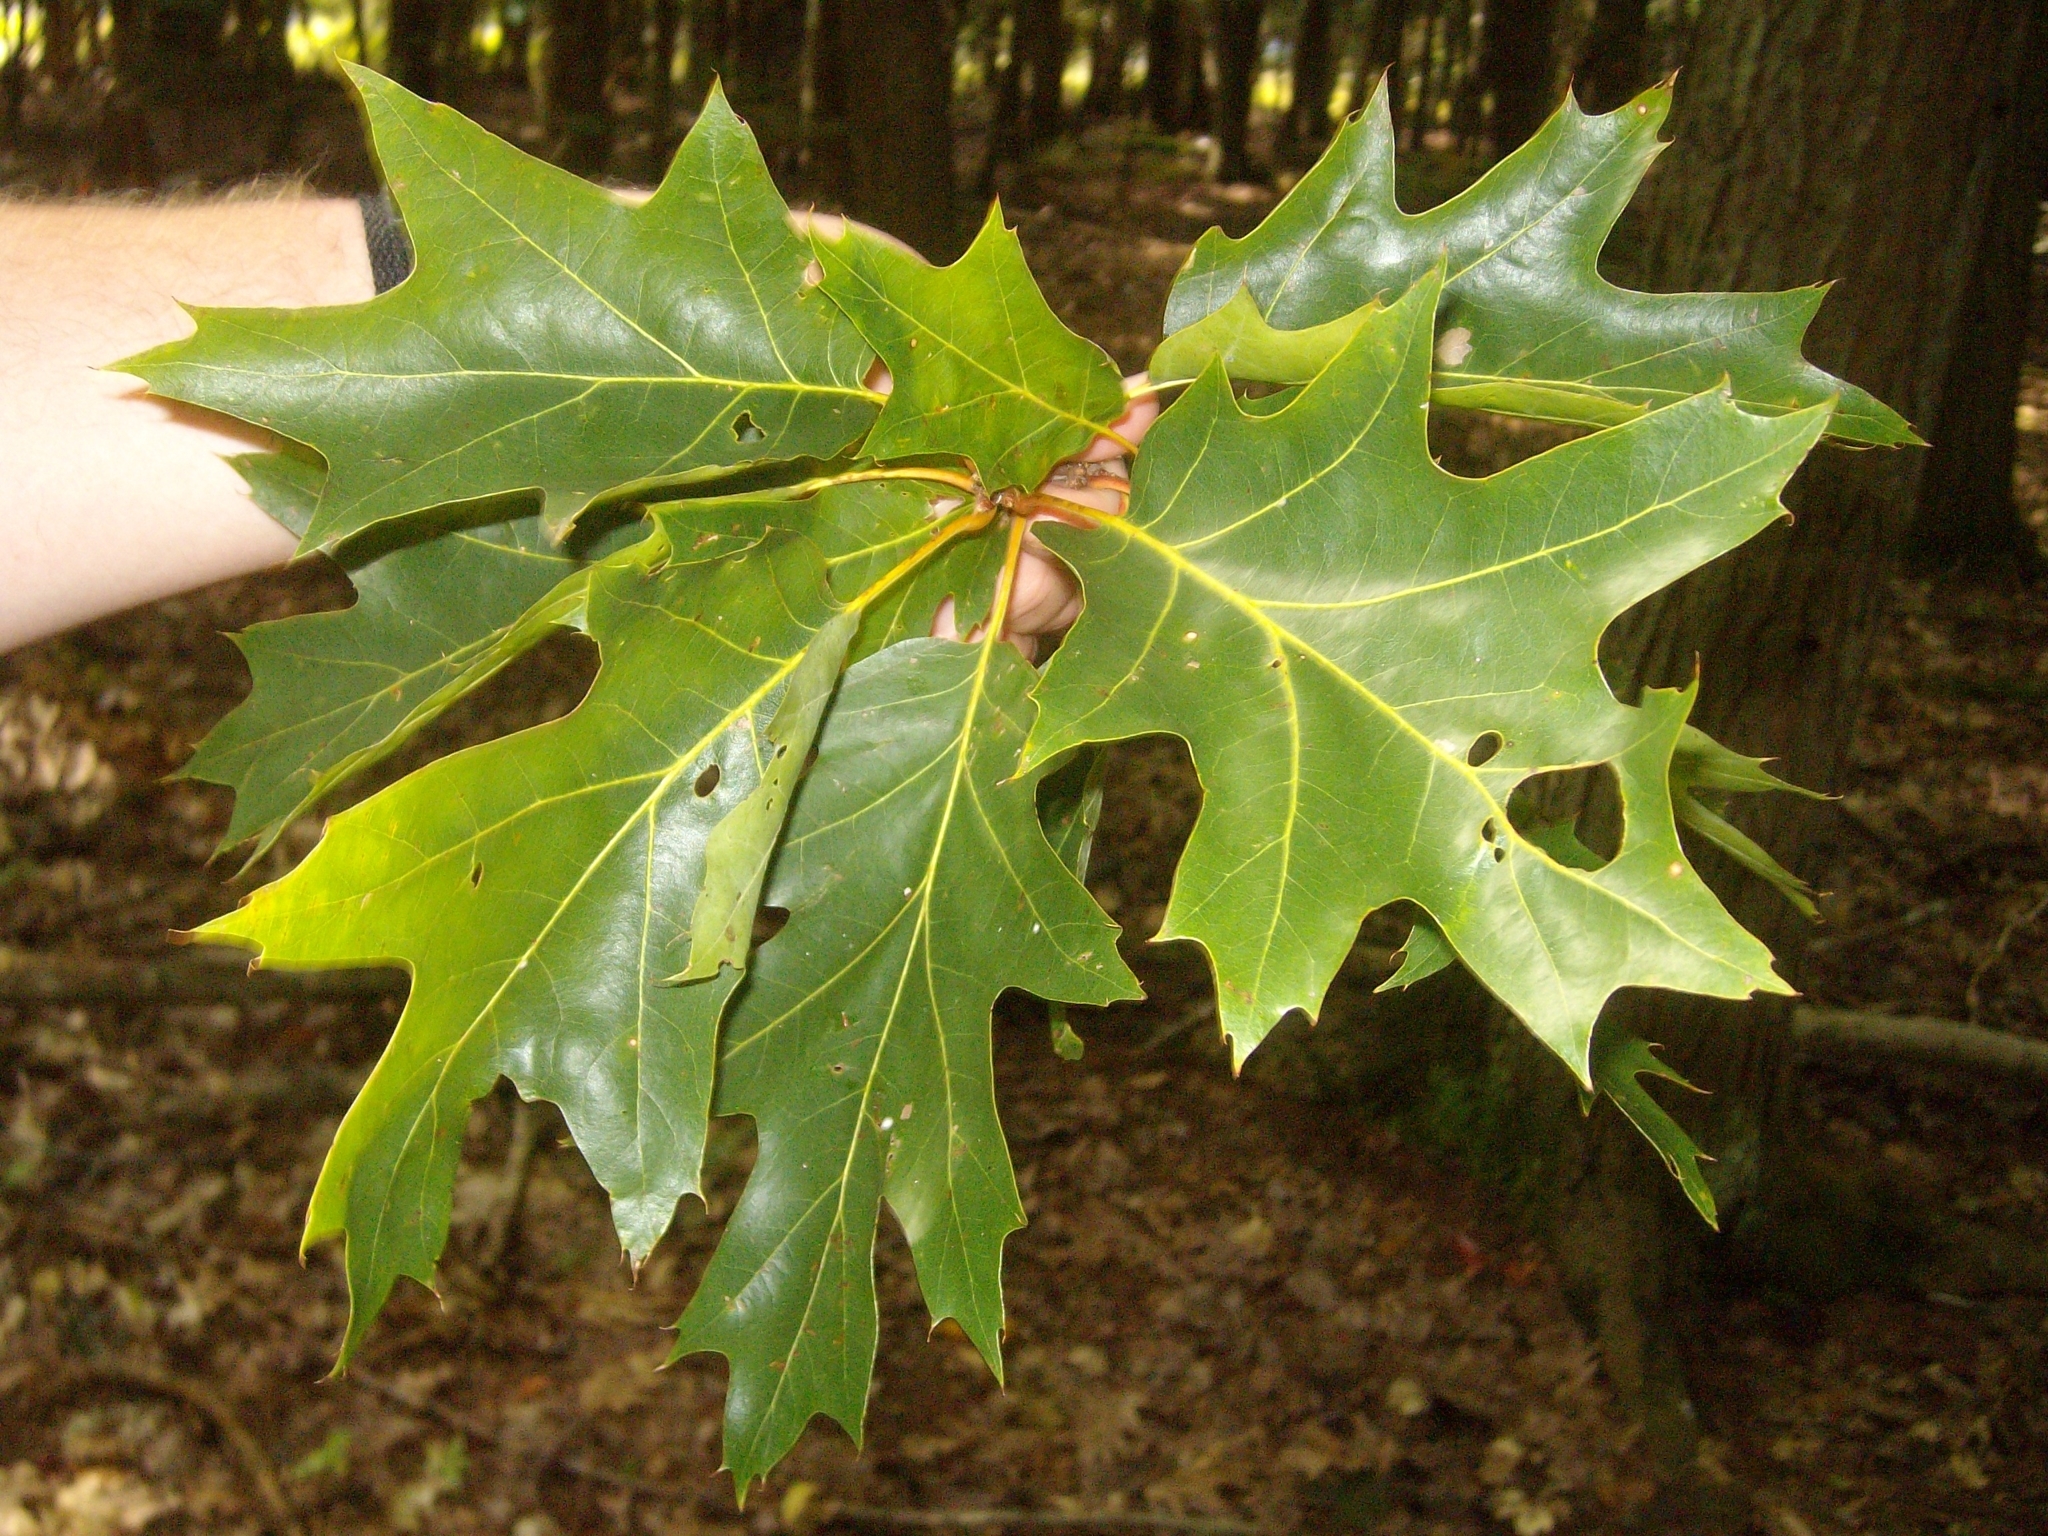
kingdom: Plantae
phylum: Tracheophyta
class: Magnoliopsida
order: Fagales
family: Fagaceae
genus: Quercus
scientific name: Quercus rubra
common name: Red oak
